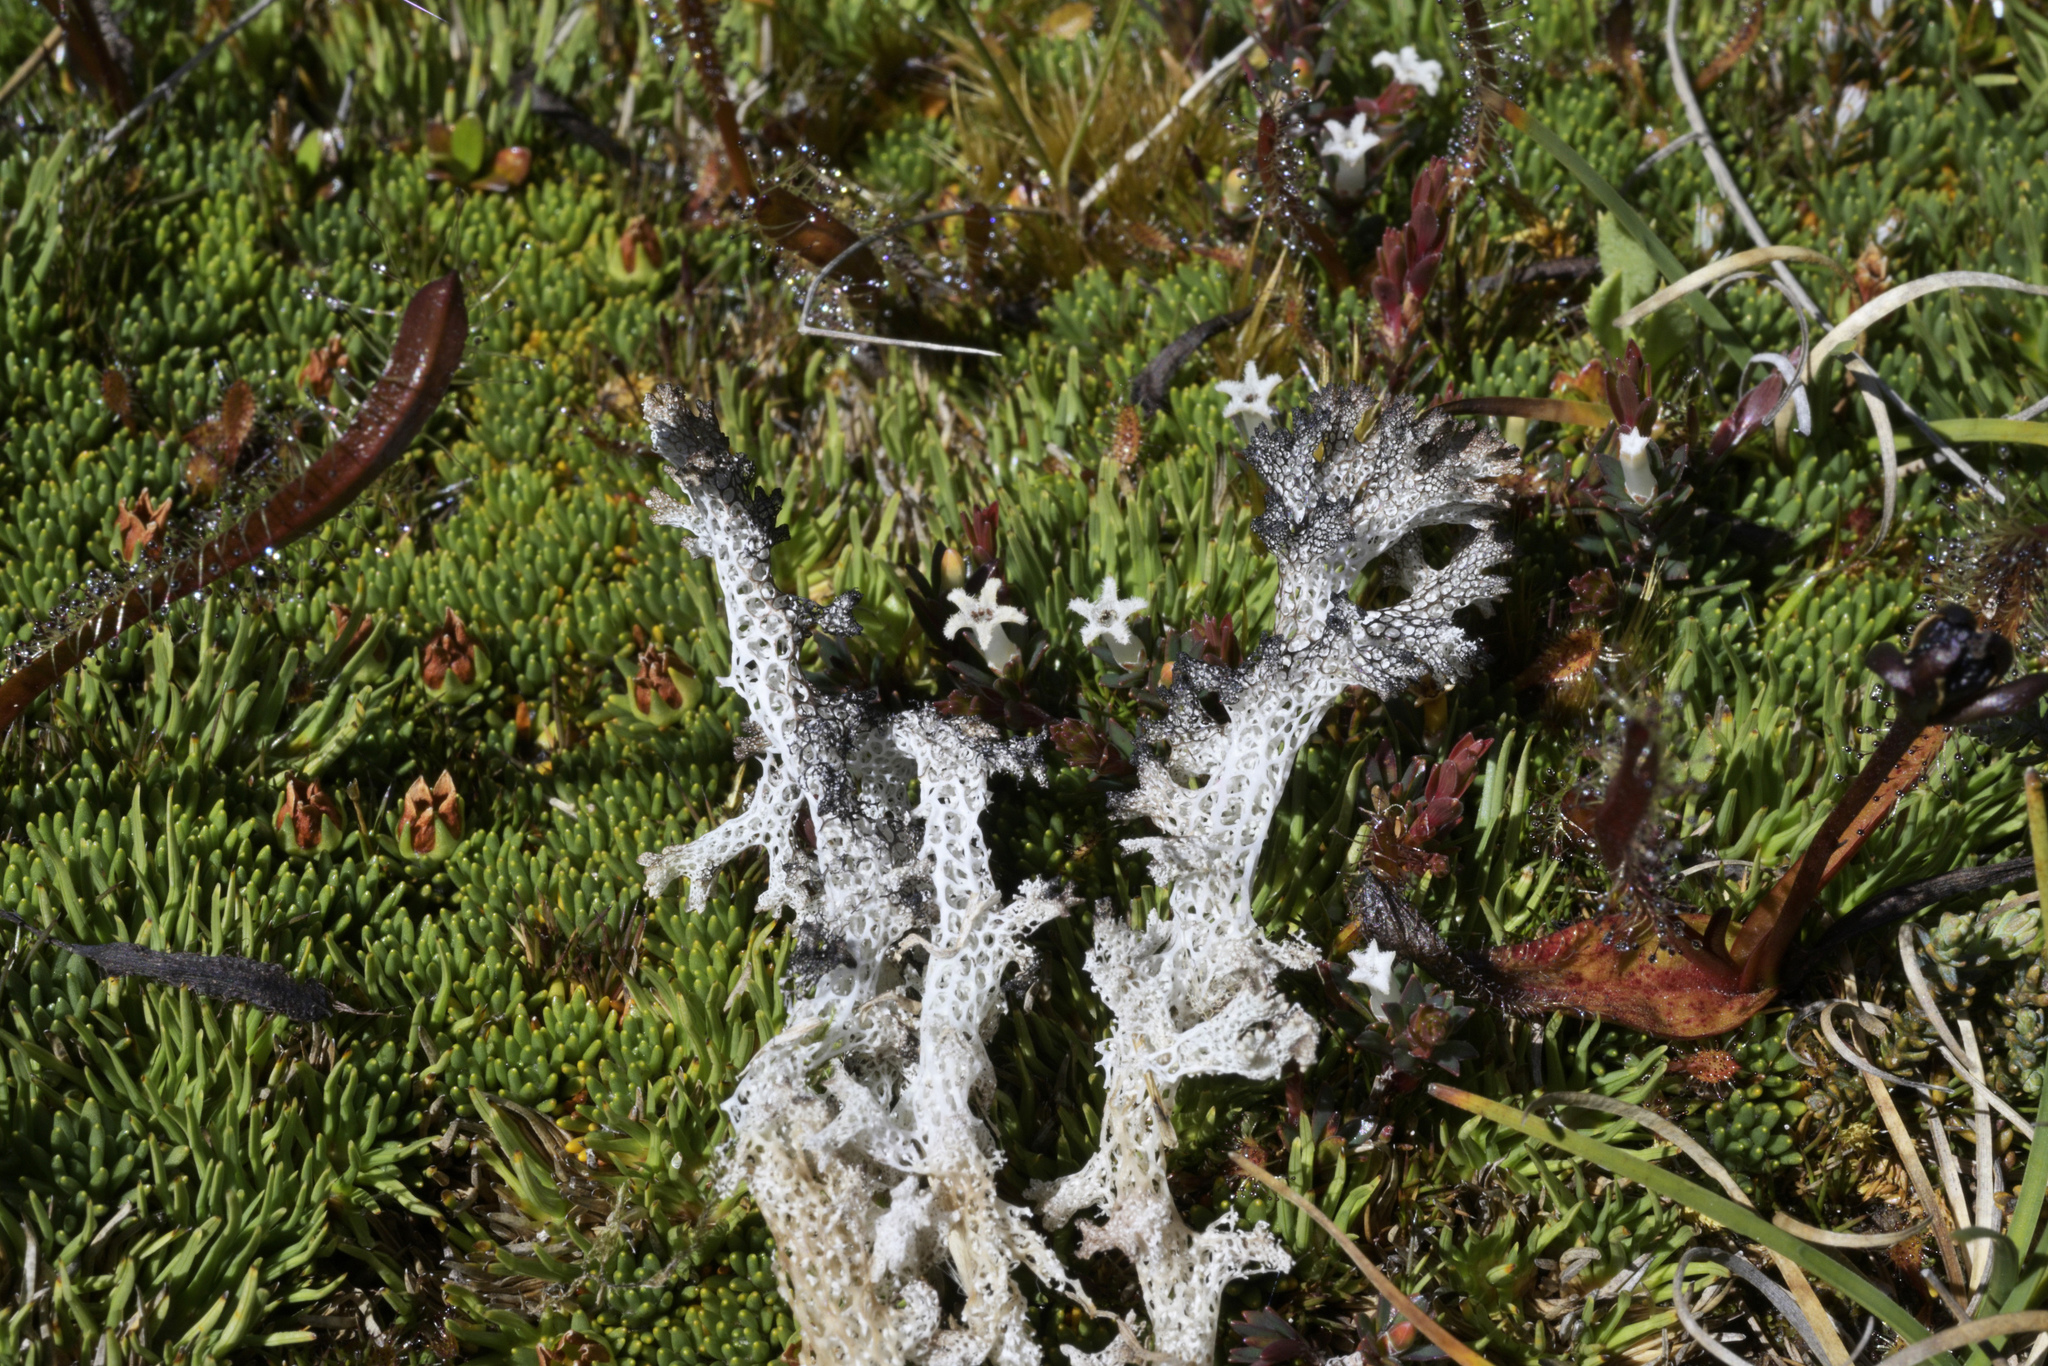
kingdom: Fungi
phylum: Ascomycota
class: Lecanoromycetes
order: Lecanorales
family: Cladoniaceae
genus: Pulchrocladia
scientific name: Pulchrocladia retipora
